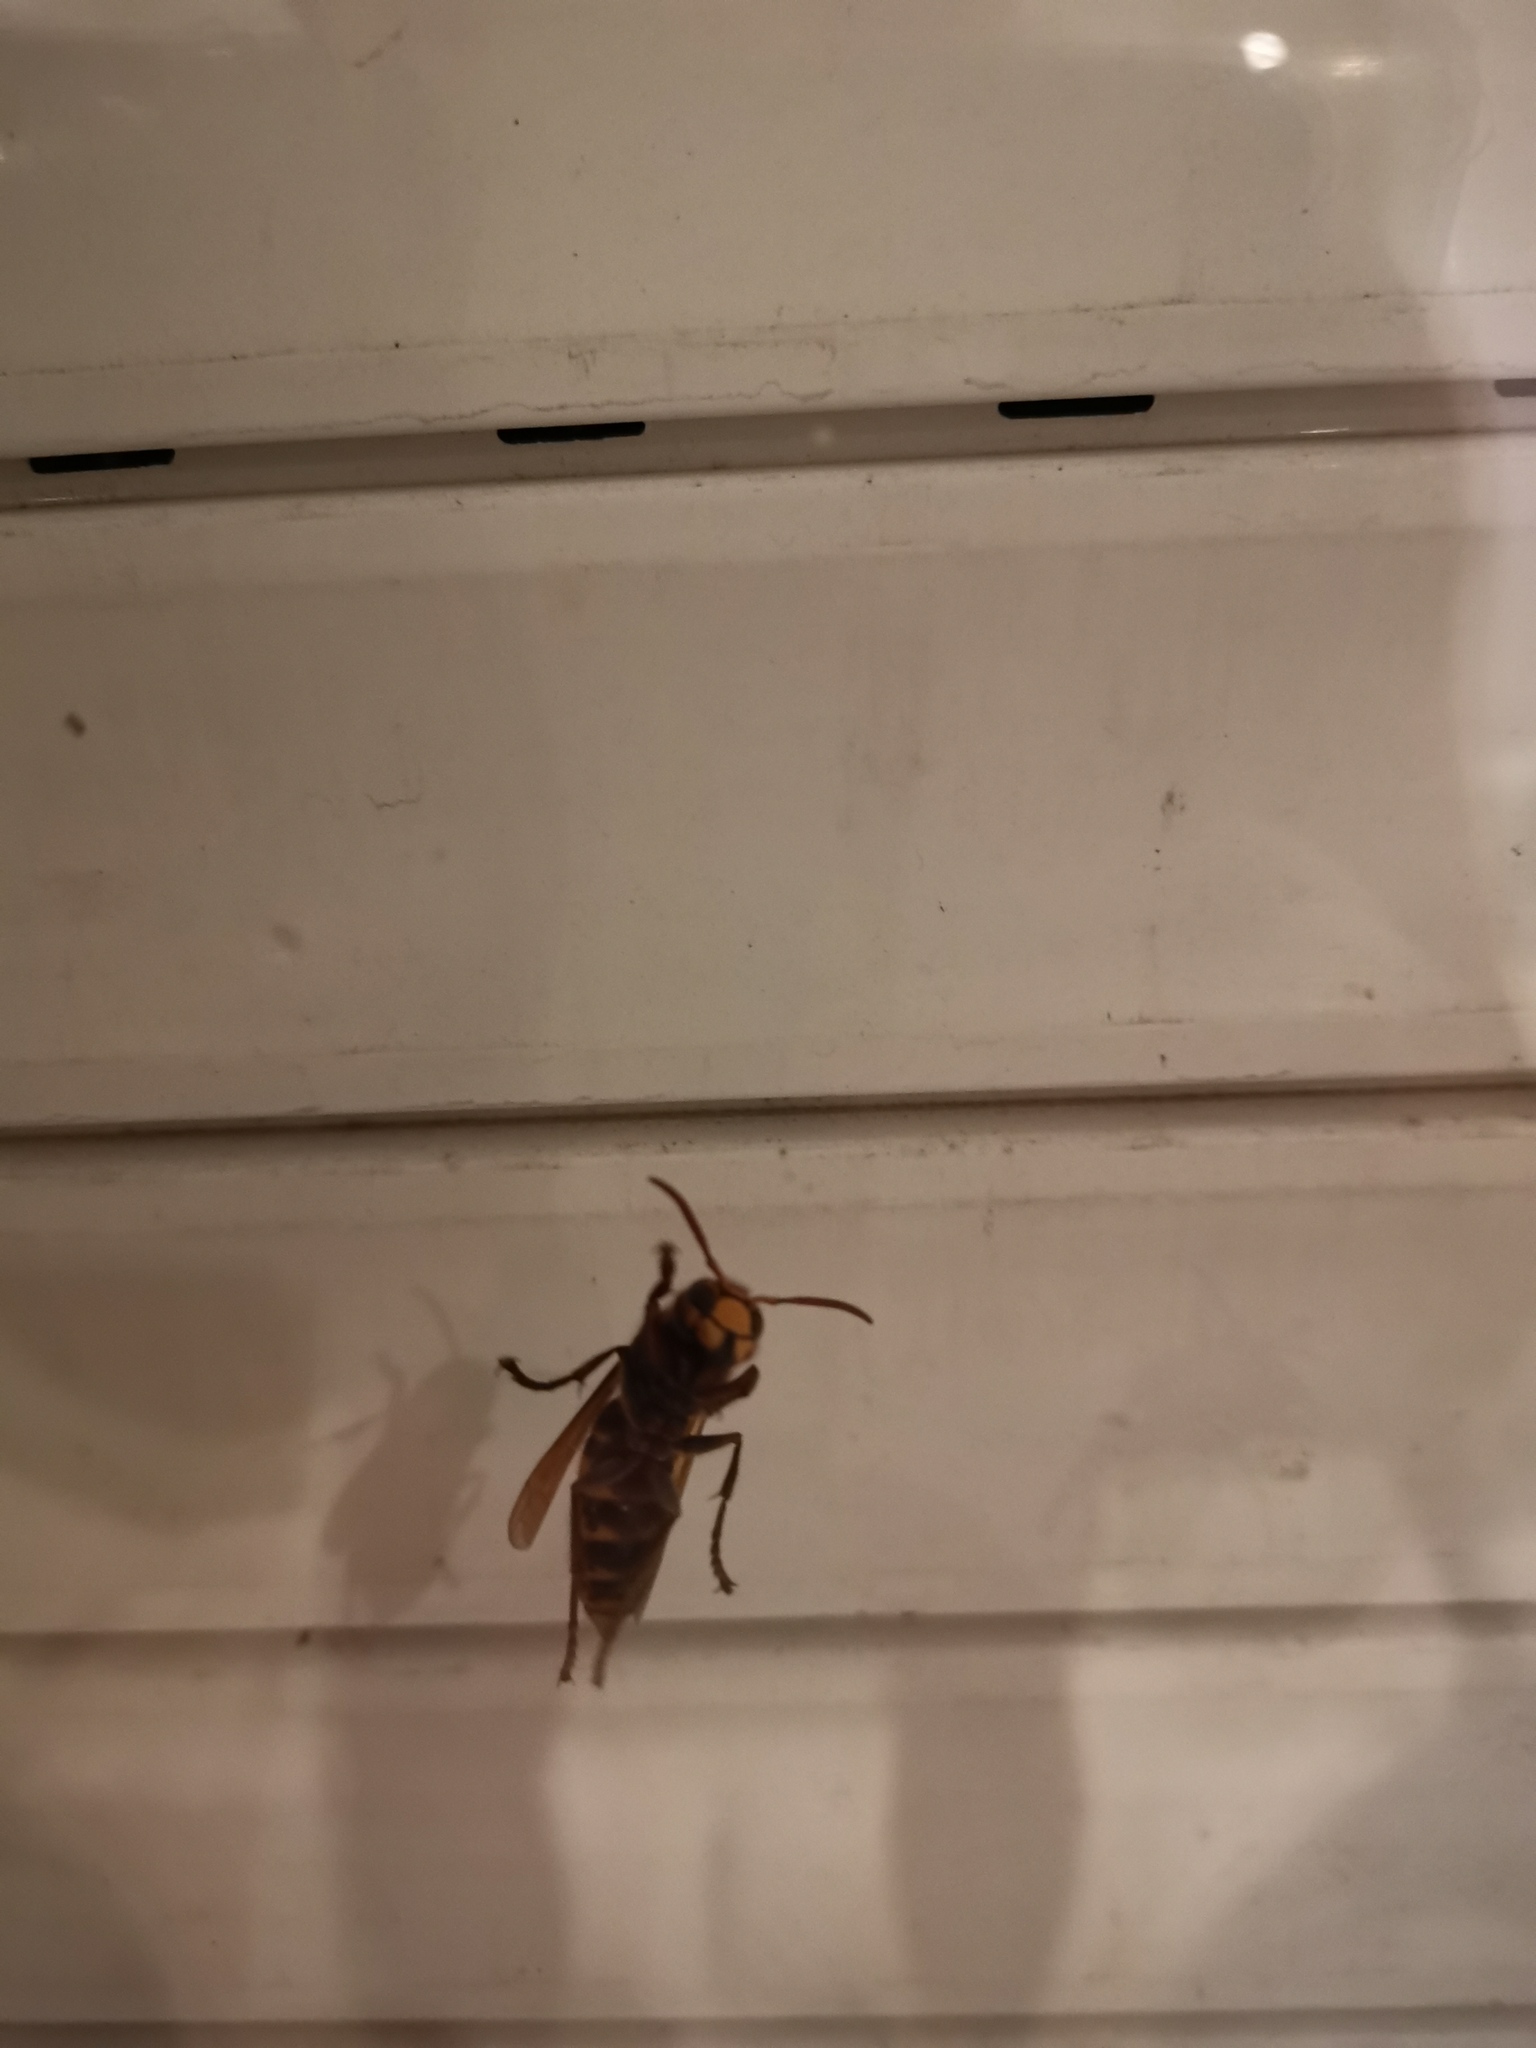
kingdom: Animalia
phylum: Arthropoda
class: Insecta
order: Hymenoptera
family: Vespidae
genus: Vespa
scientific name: Vespa crabro
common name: Hornet
